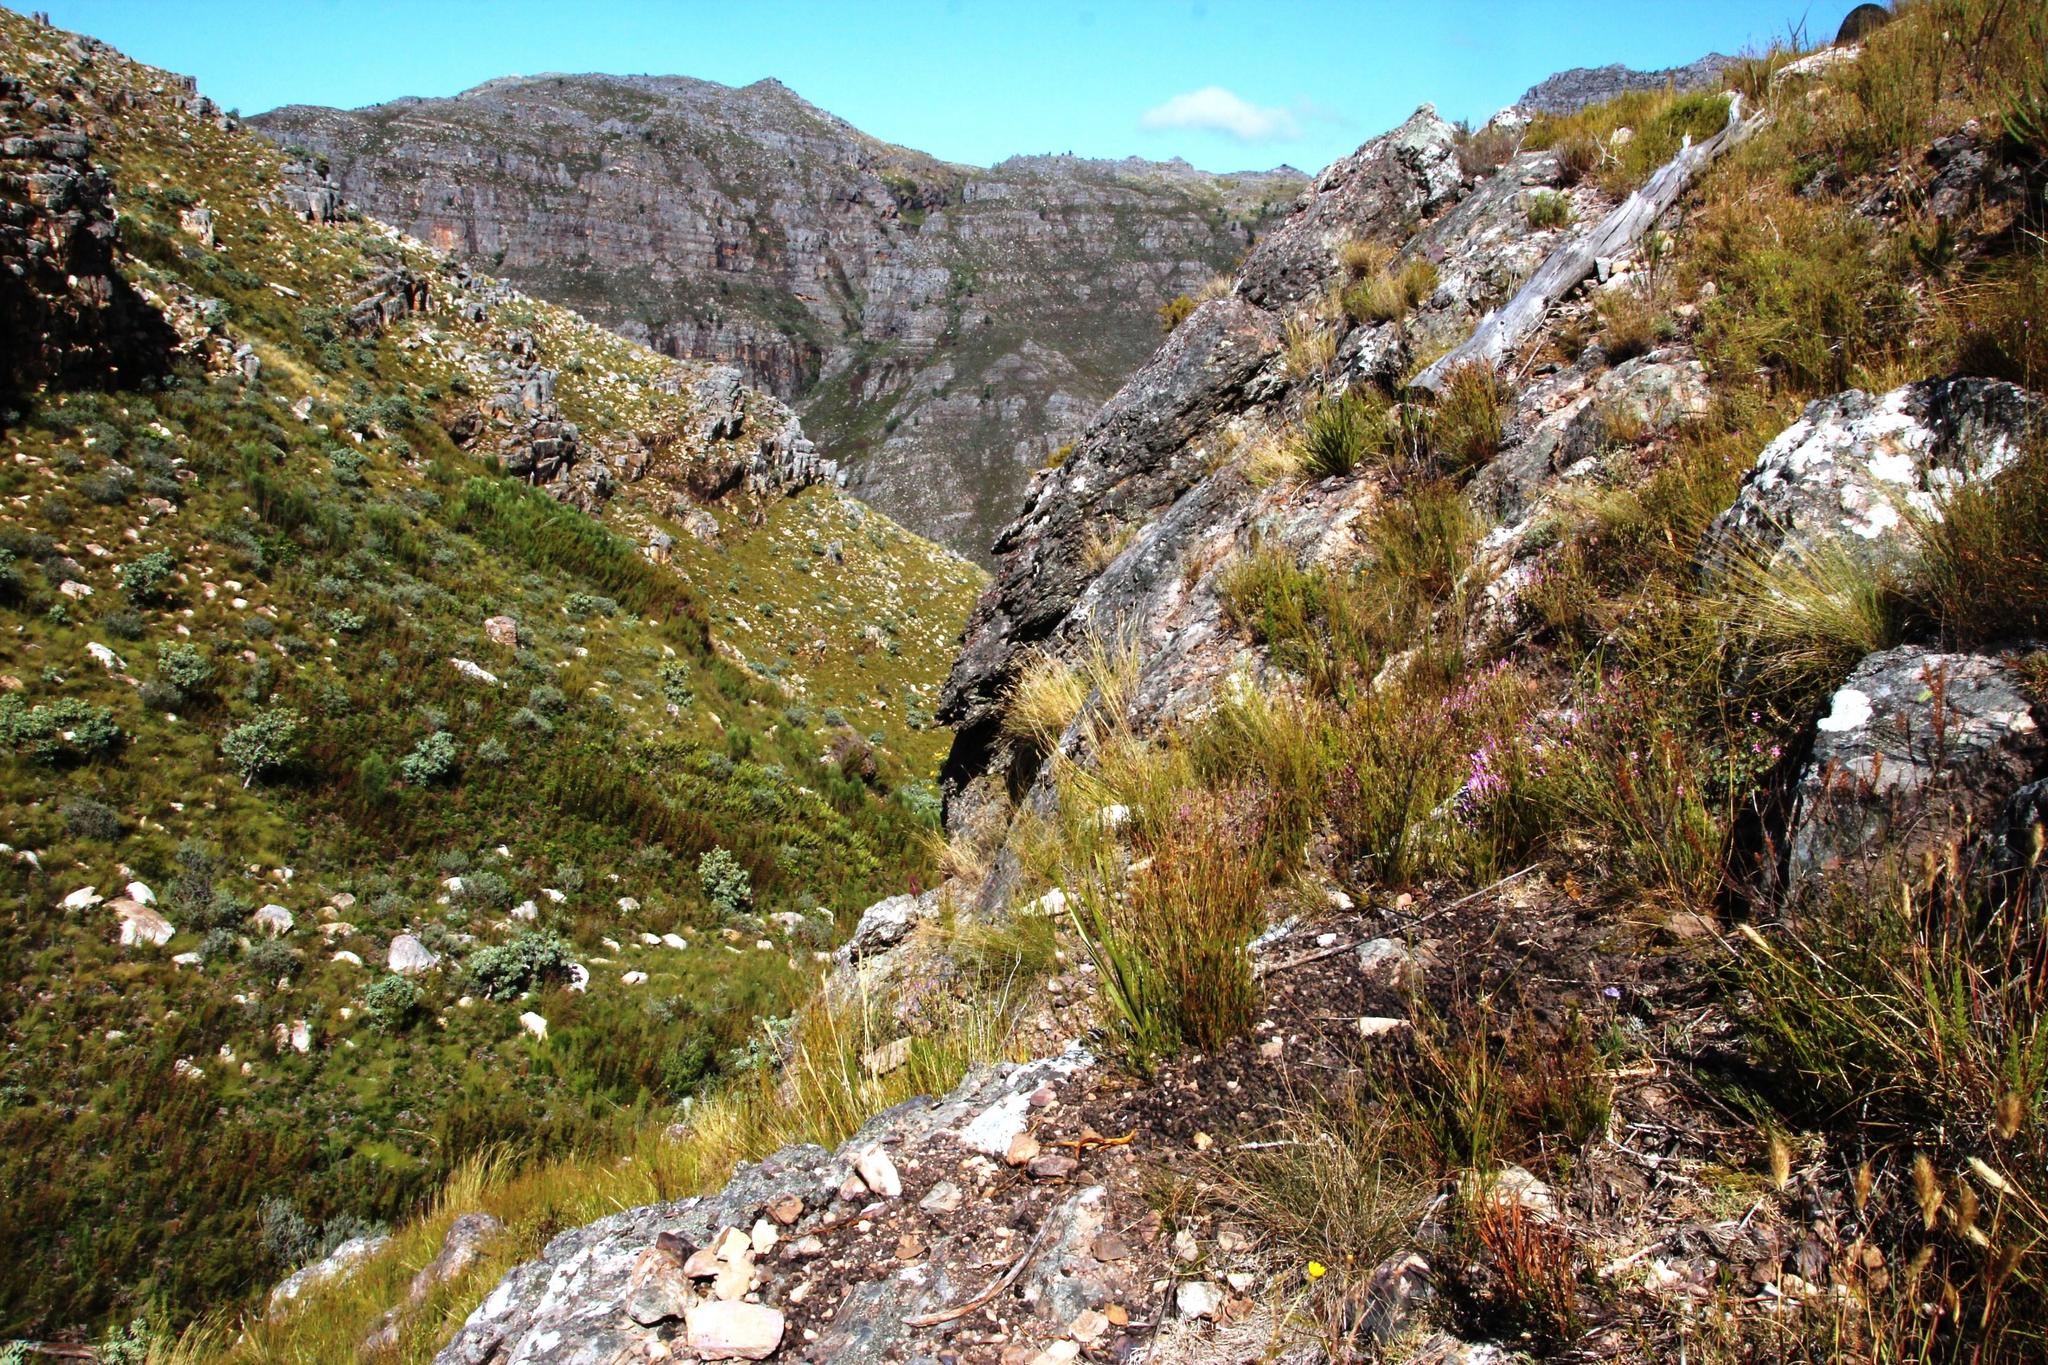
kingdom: Plantae
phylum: Tracheophyta
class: Magnoliopsida
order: Proteales
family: Proteaceae
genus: Protea
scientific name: Protea nitida
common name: Tree protea
